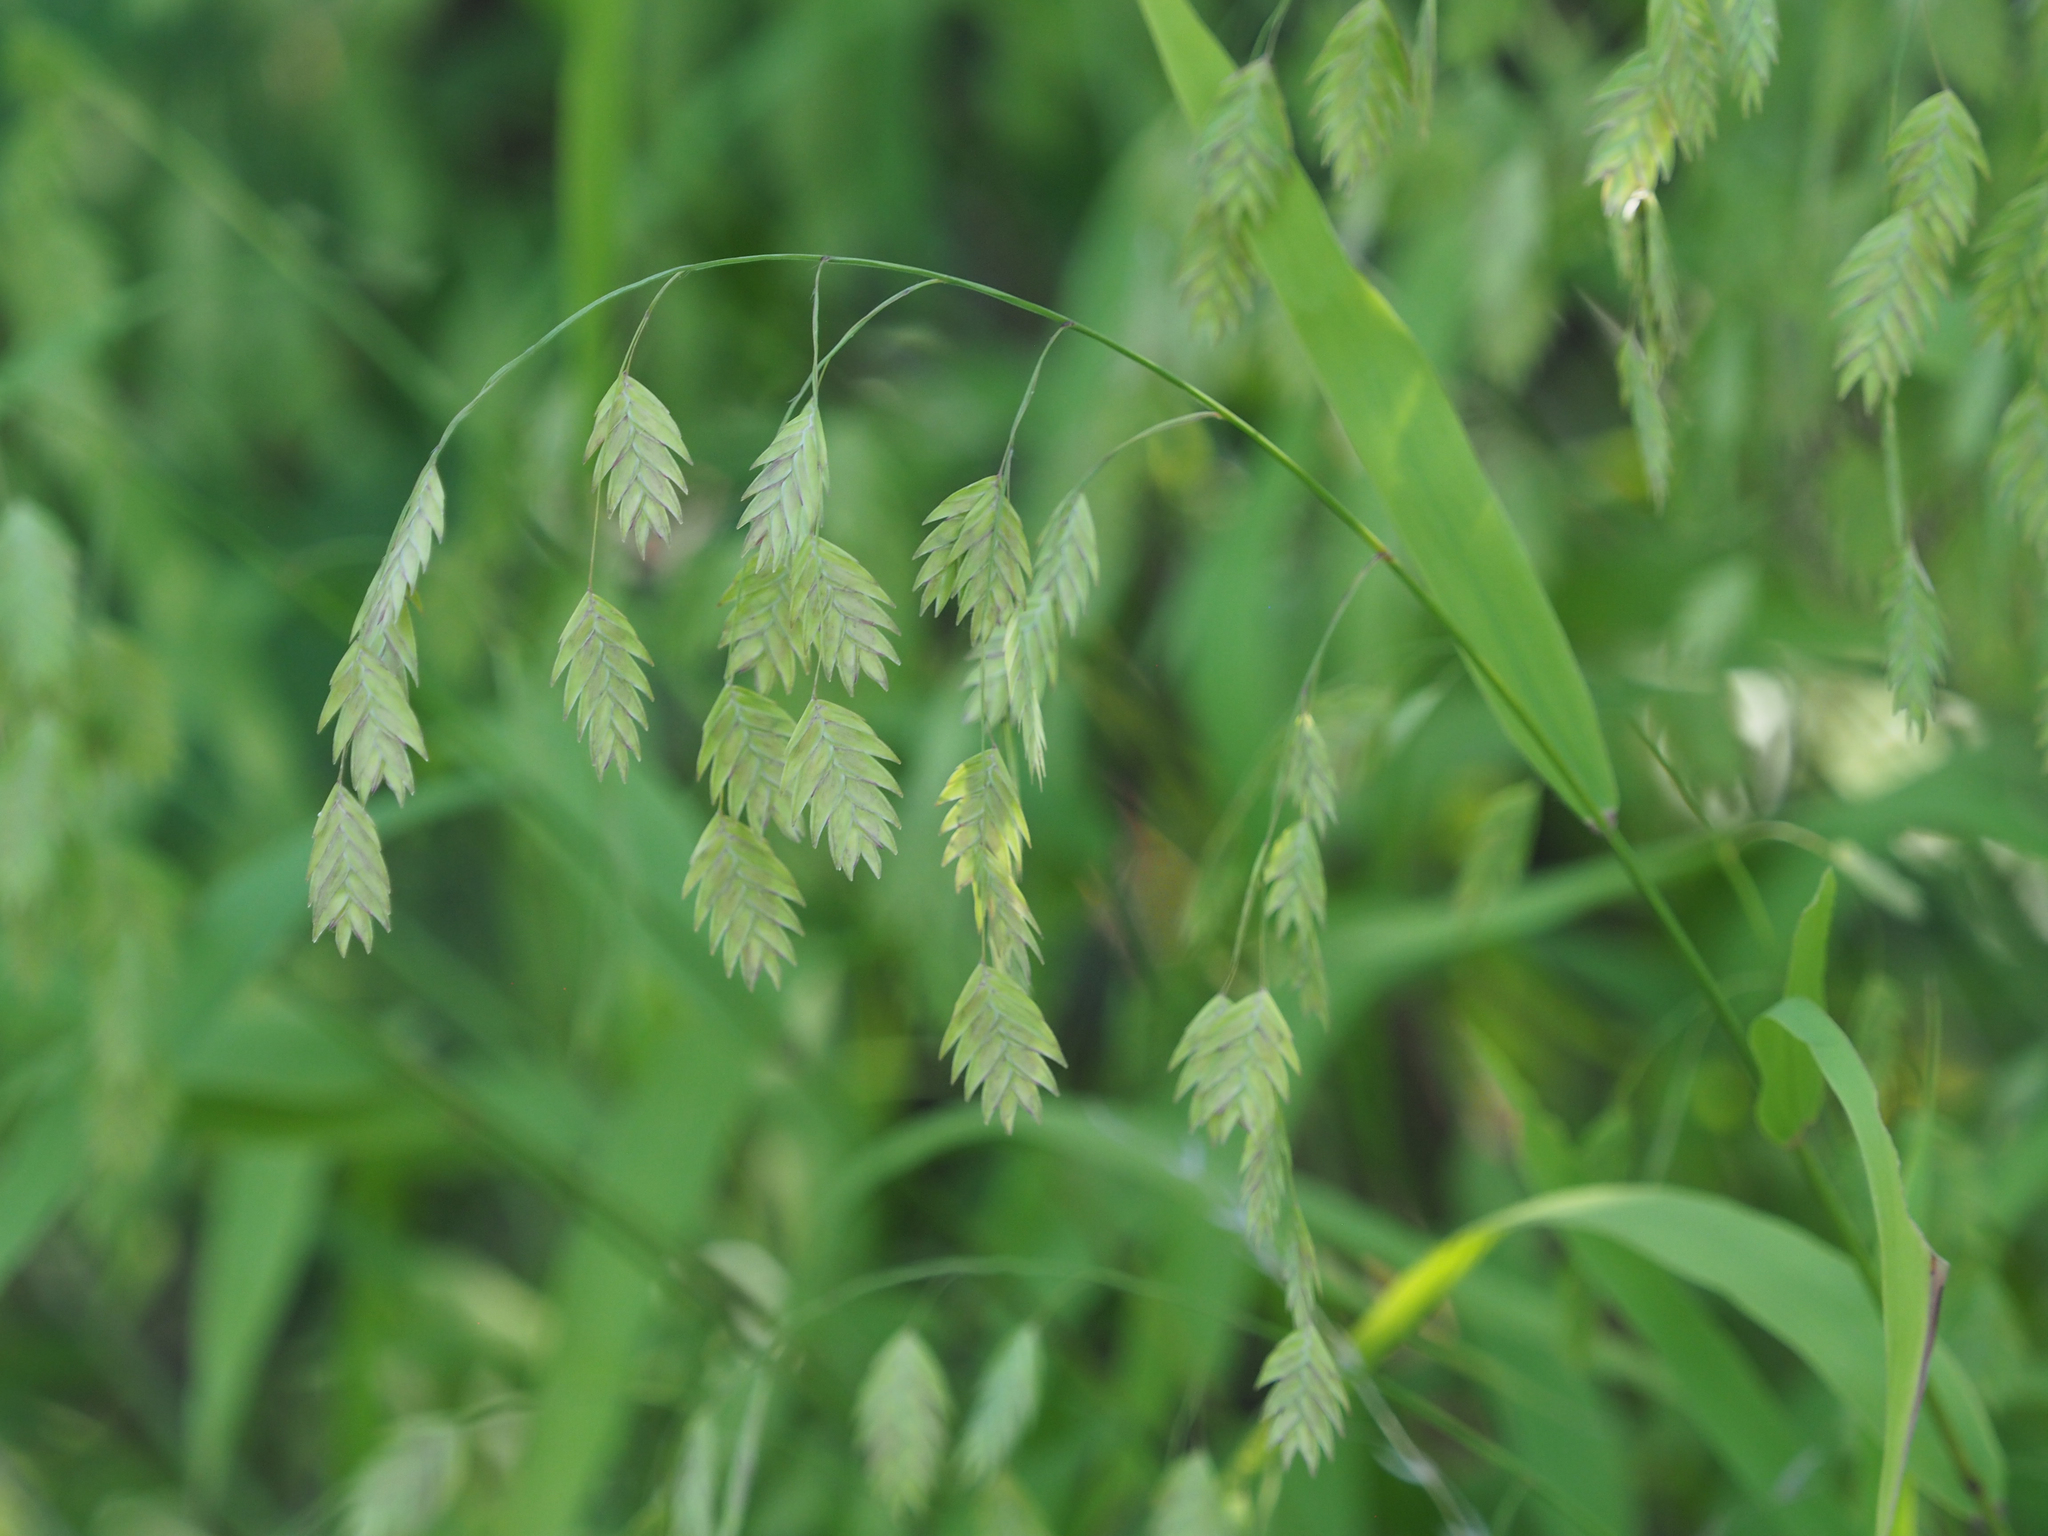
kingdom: Plantae
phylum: Tracheophyta
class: Liliopsida
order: Poales
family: Poaceae
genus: Chasmanthium
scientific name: Chasmanthium latifolium
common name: Broad-leaved chasmanthium
